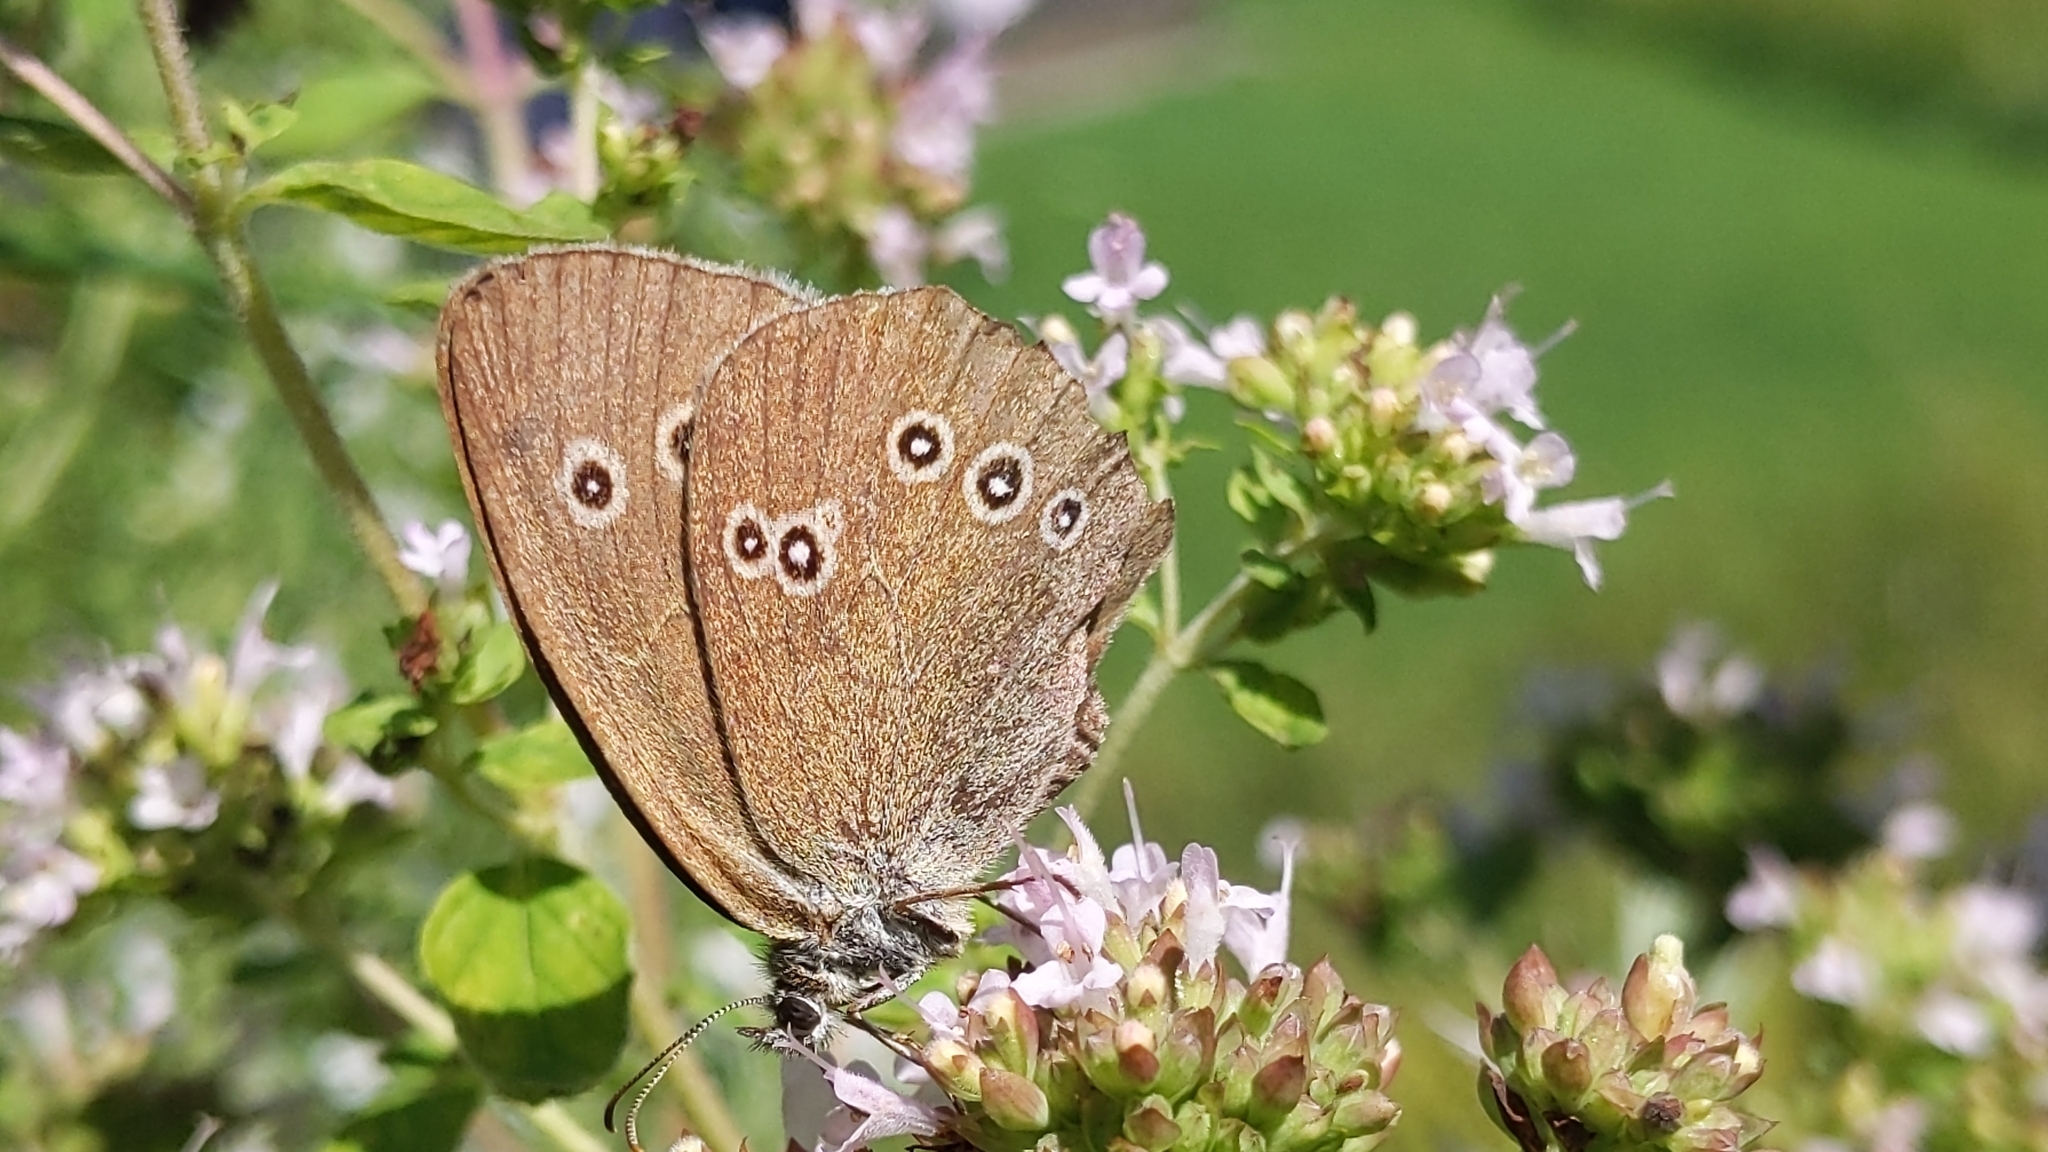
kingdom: Animalia
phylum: Arthropoda
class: Insecta
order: Lepidoptera
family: Nymphalidae
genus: Aphantopus
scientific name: Aphantopus hyperantus
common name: Ringlet
